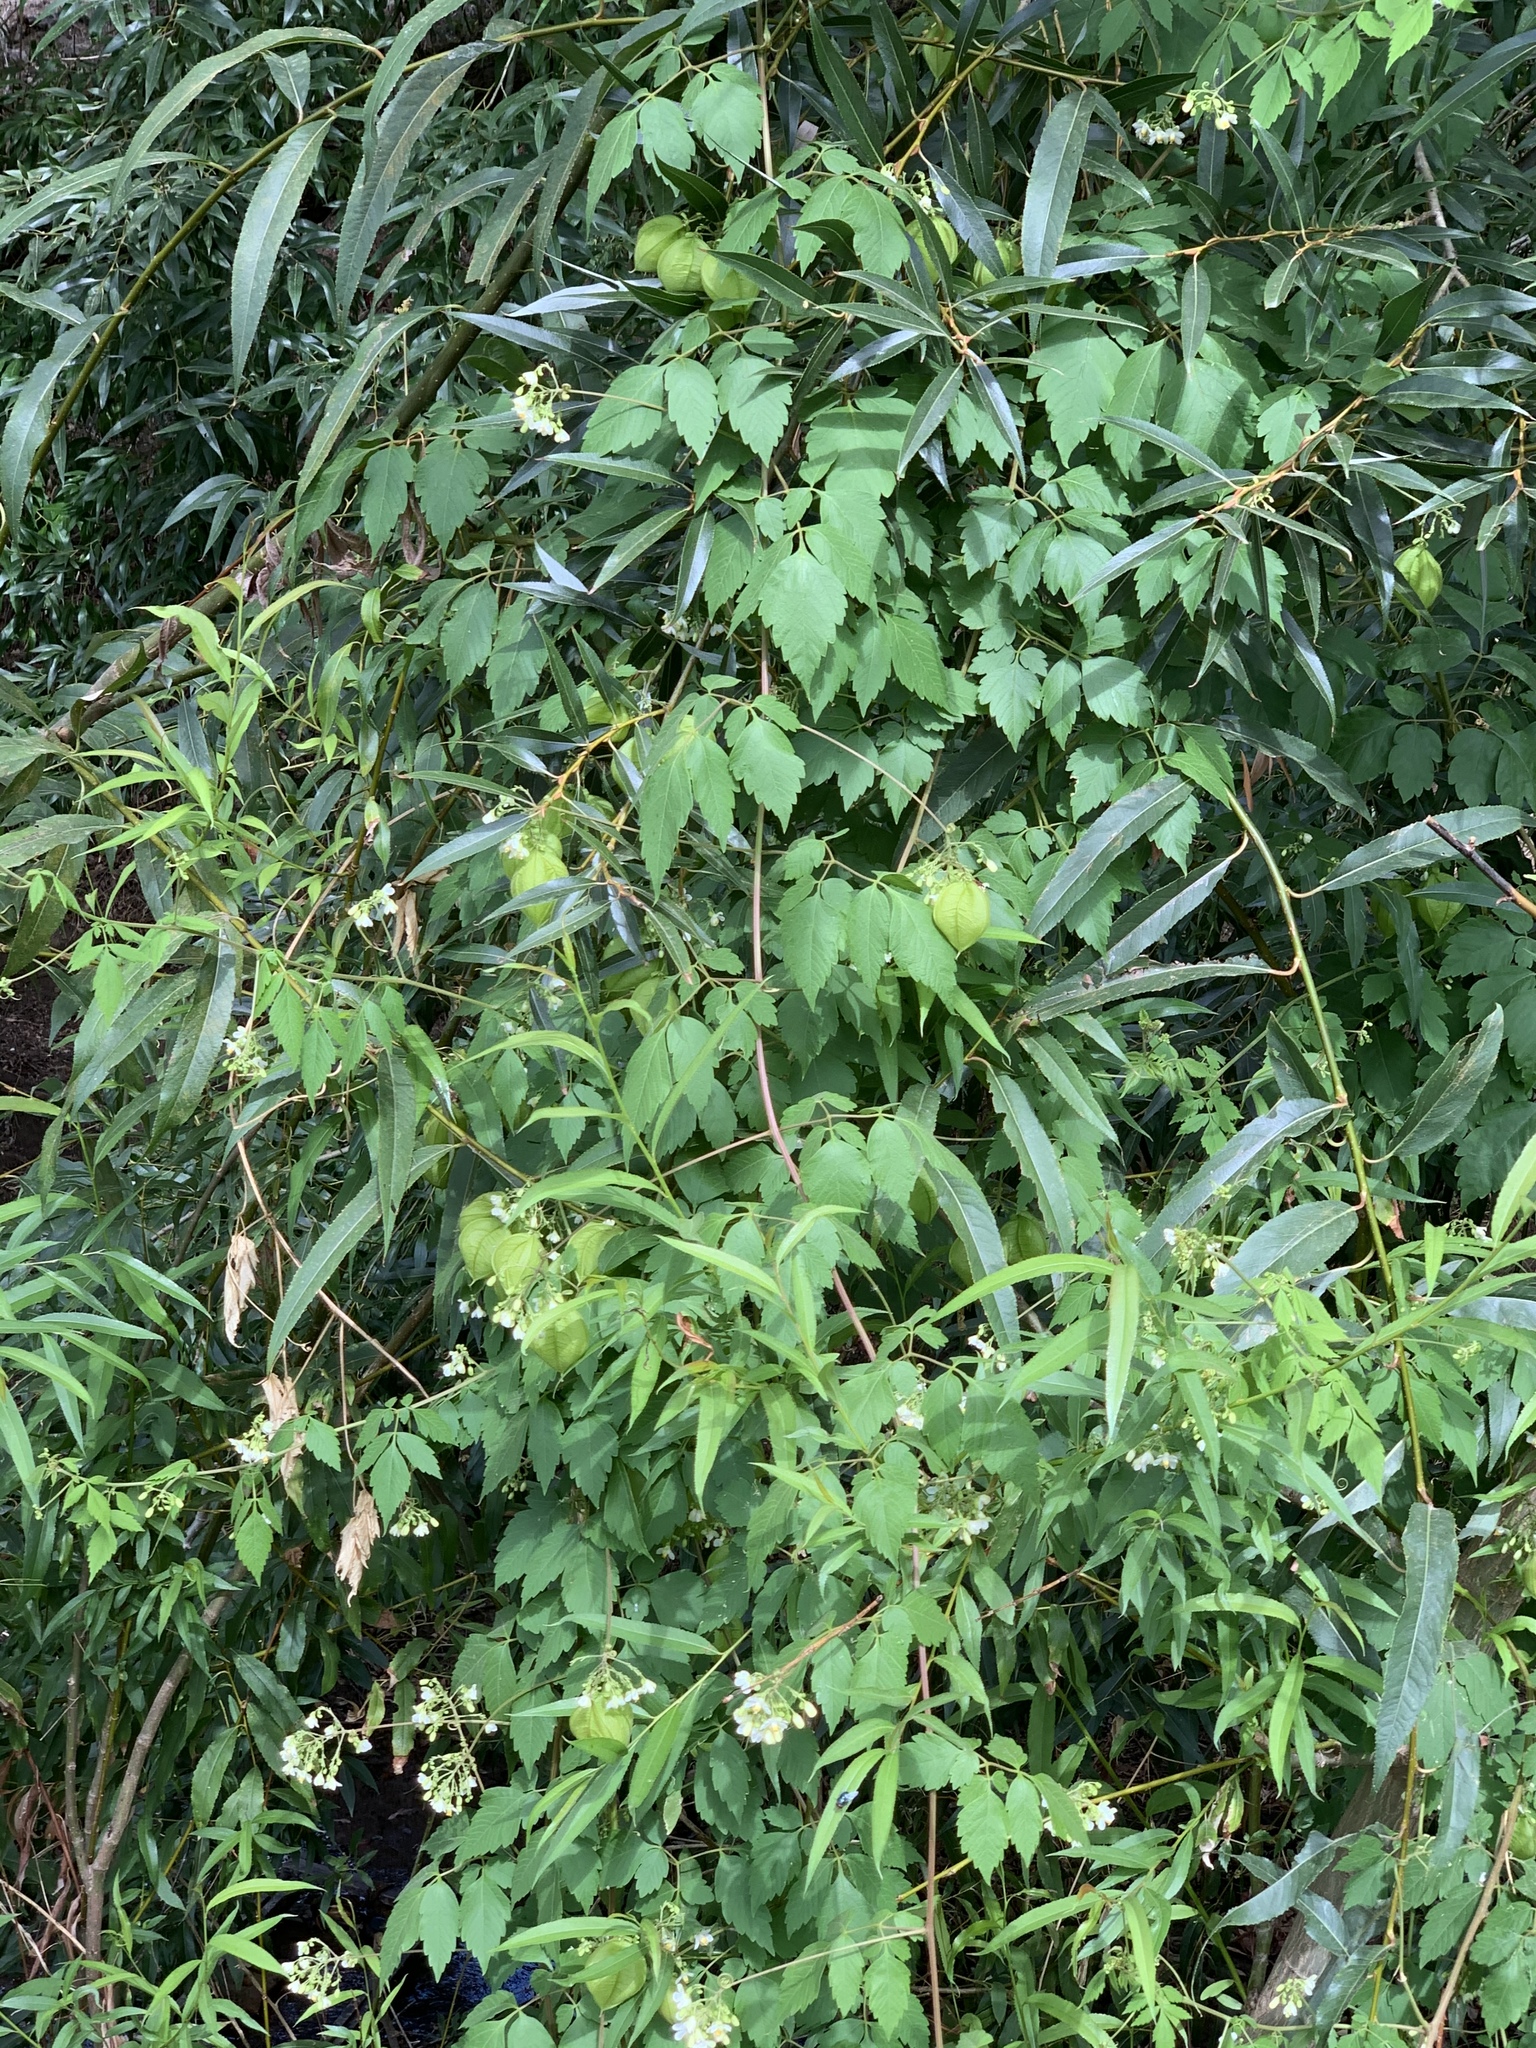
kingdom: Plantae
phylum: Tracheophyta
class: Magnoliopsida
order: Sapindales
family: Sapindaceae
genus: Cardiospermum
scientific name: Cardiospermum grandiflorum
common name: Balloon vine
